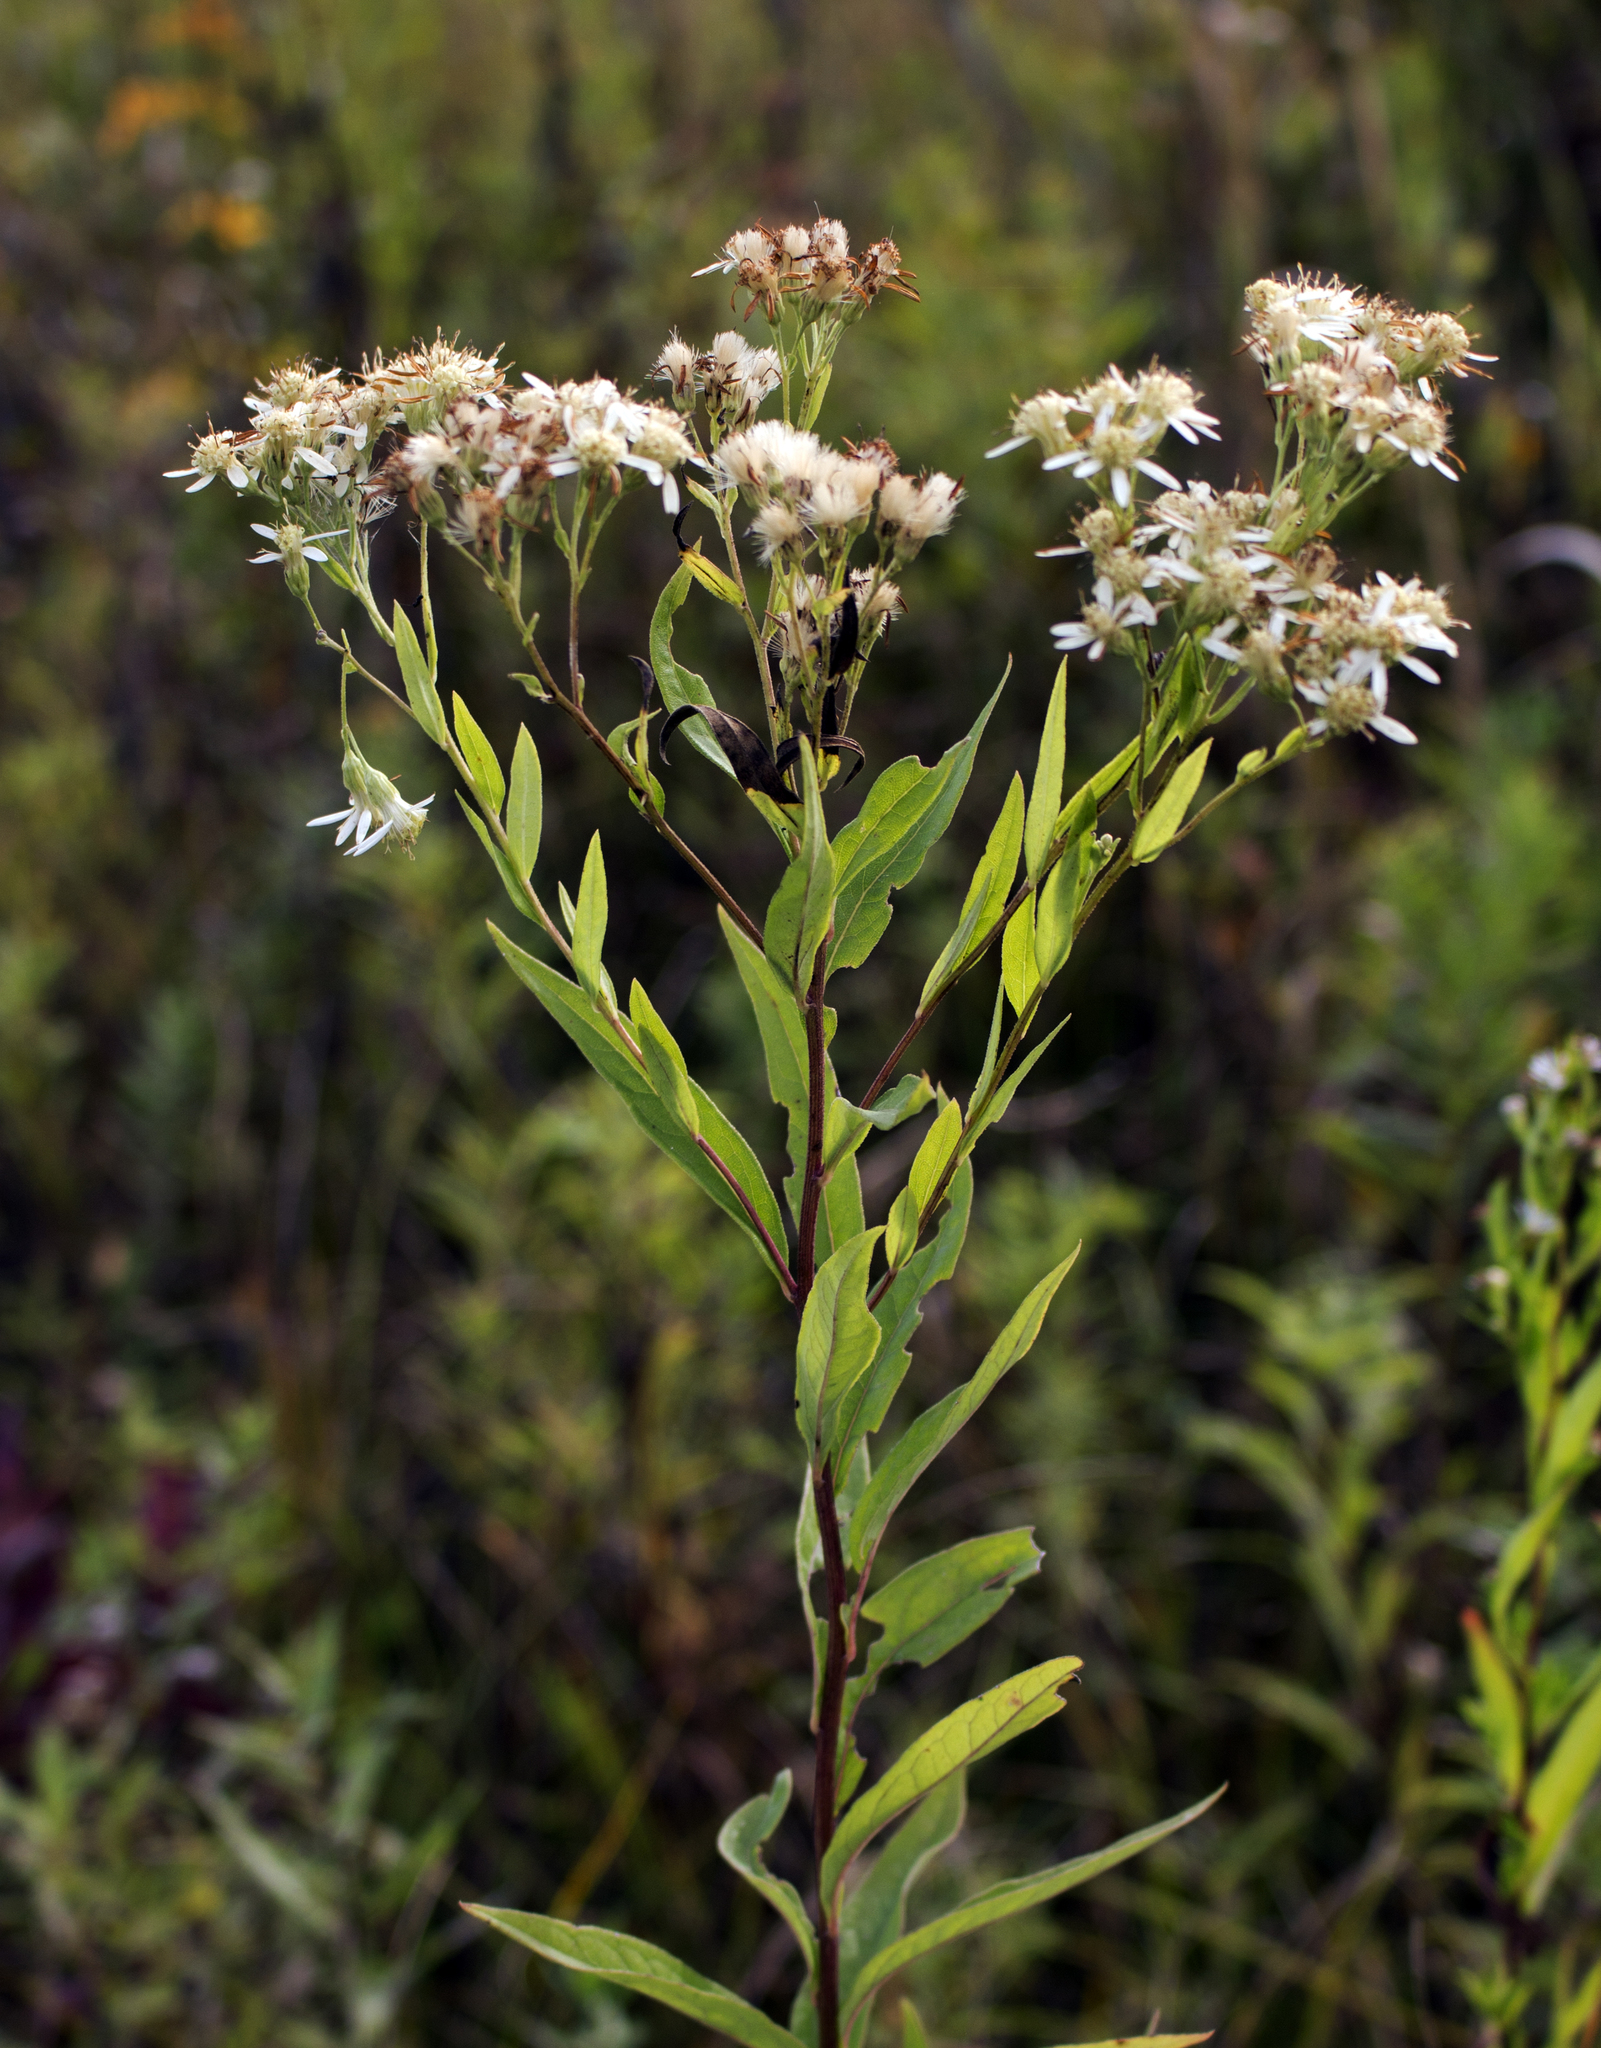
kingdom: Plantae
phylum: Tracheophyta
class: Magnoliopsida
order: Asterales
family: Asteraceae
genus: Doellingeria
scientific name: Doellingeria umbellata
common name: Flat-top white aster
